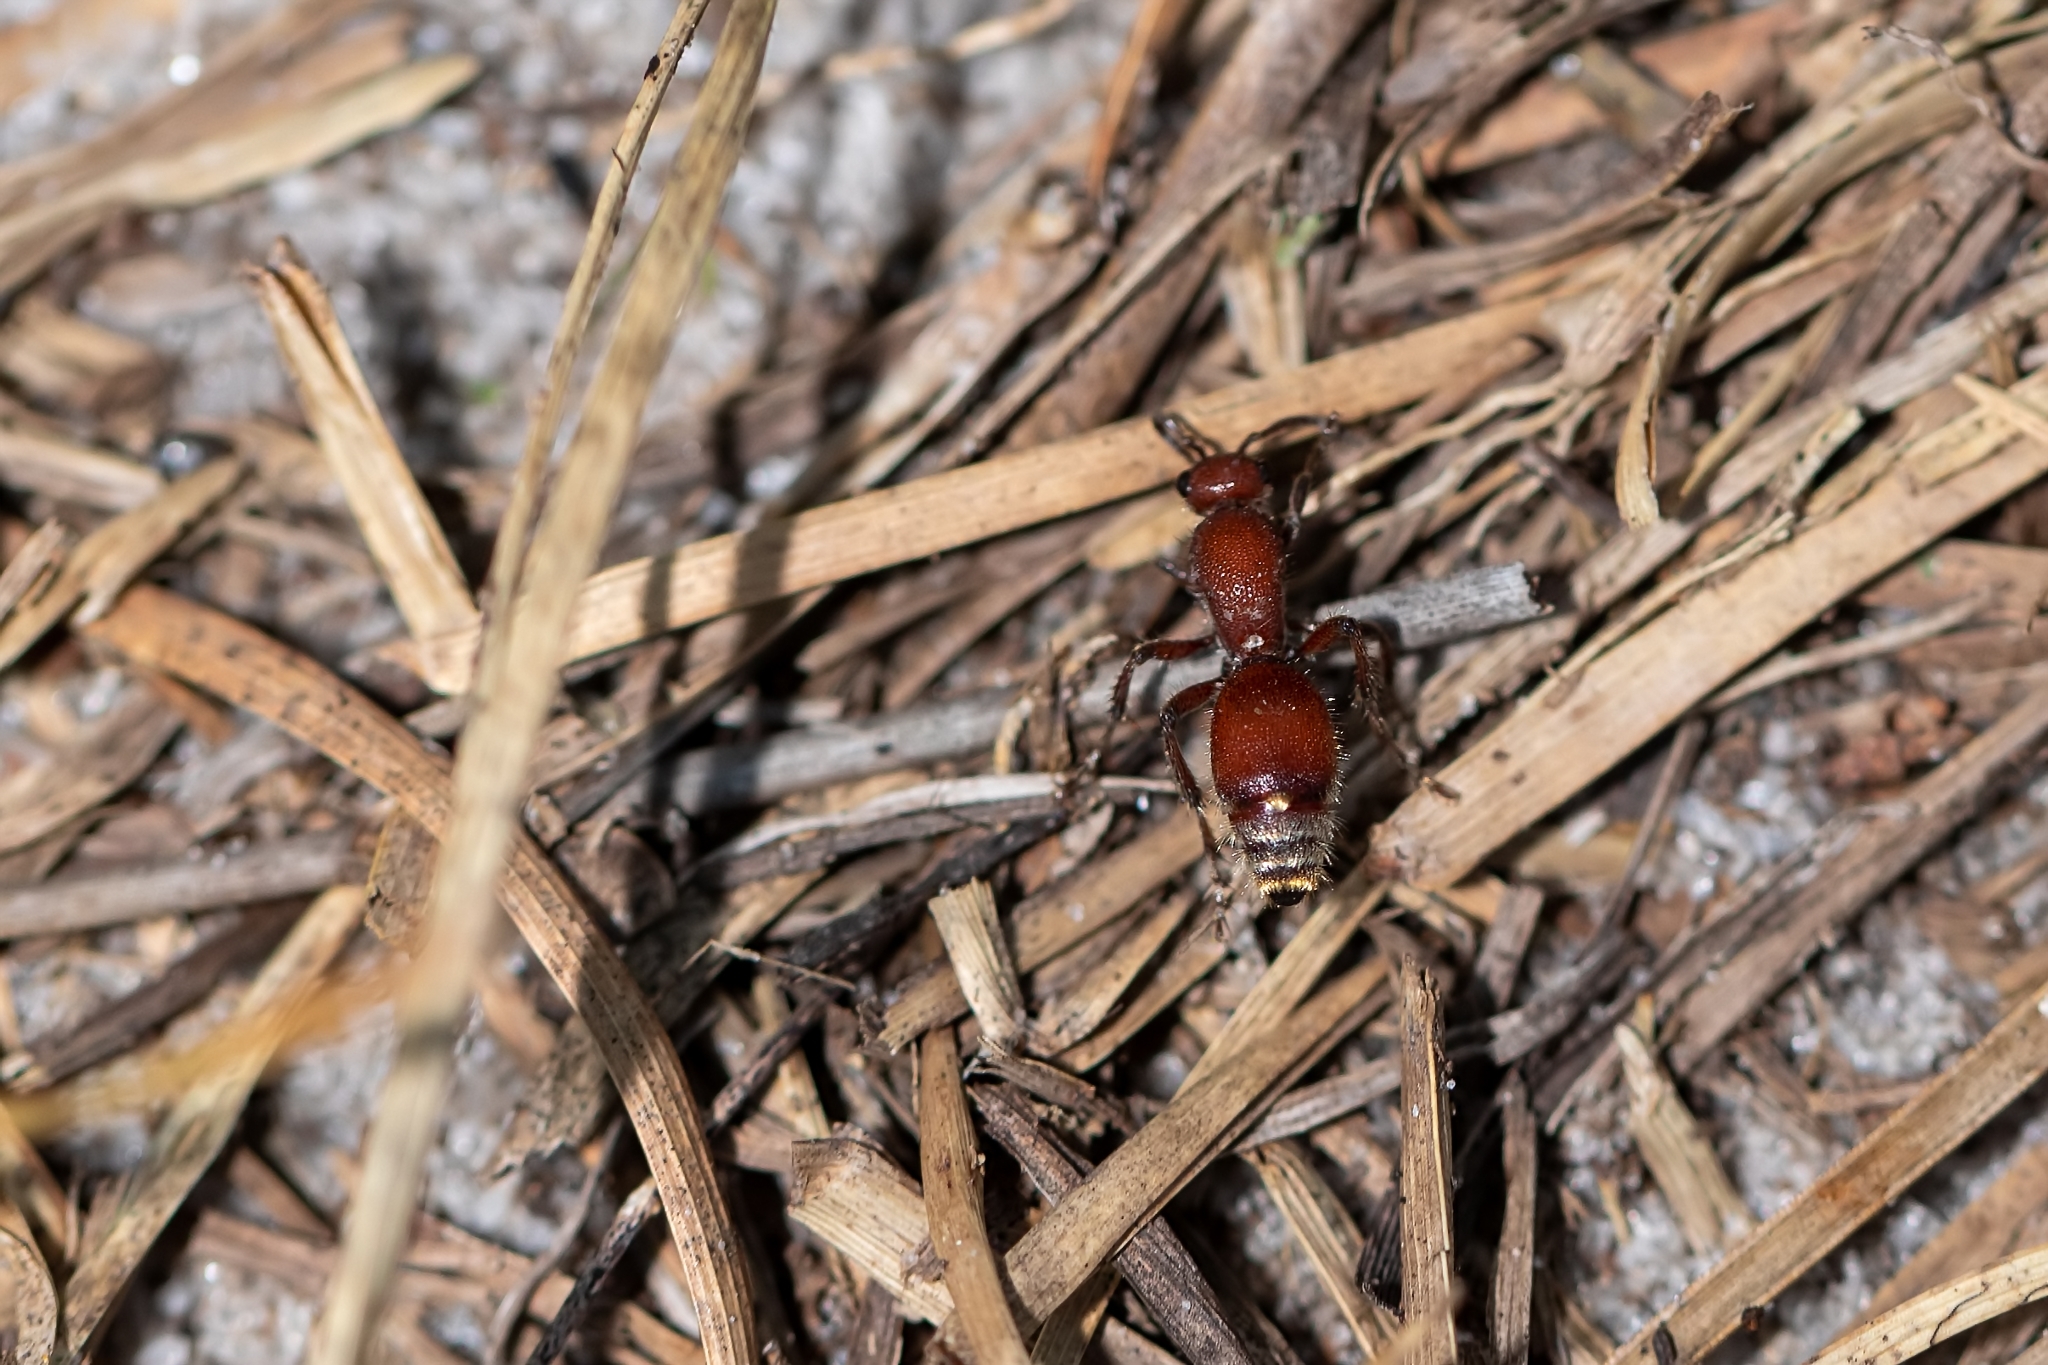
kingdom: Animalia
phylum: Arthropoda
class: Insecta
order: Hymenoptera
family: Mutillidae
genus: Dasymutilla
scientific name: Dasymutilla
